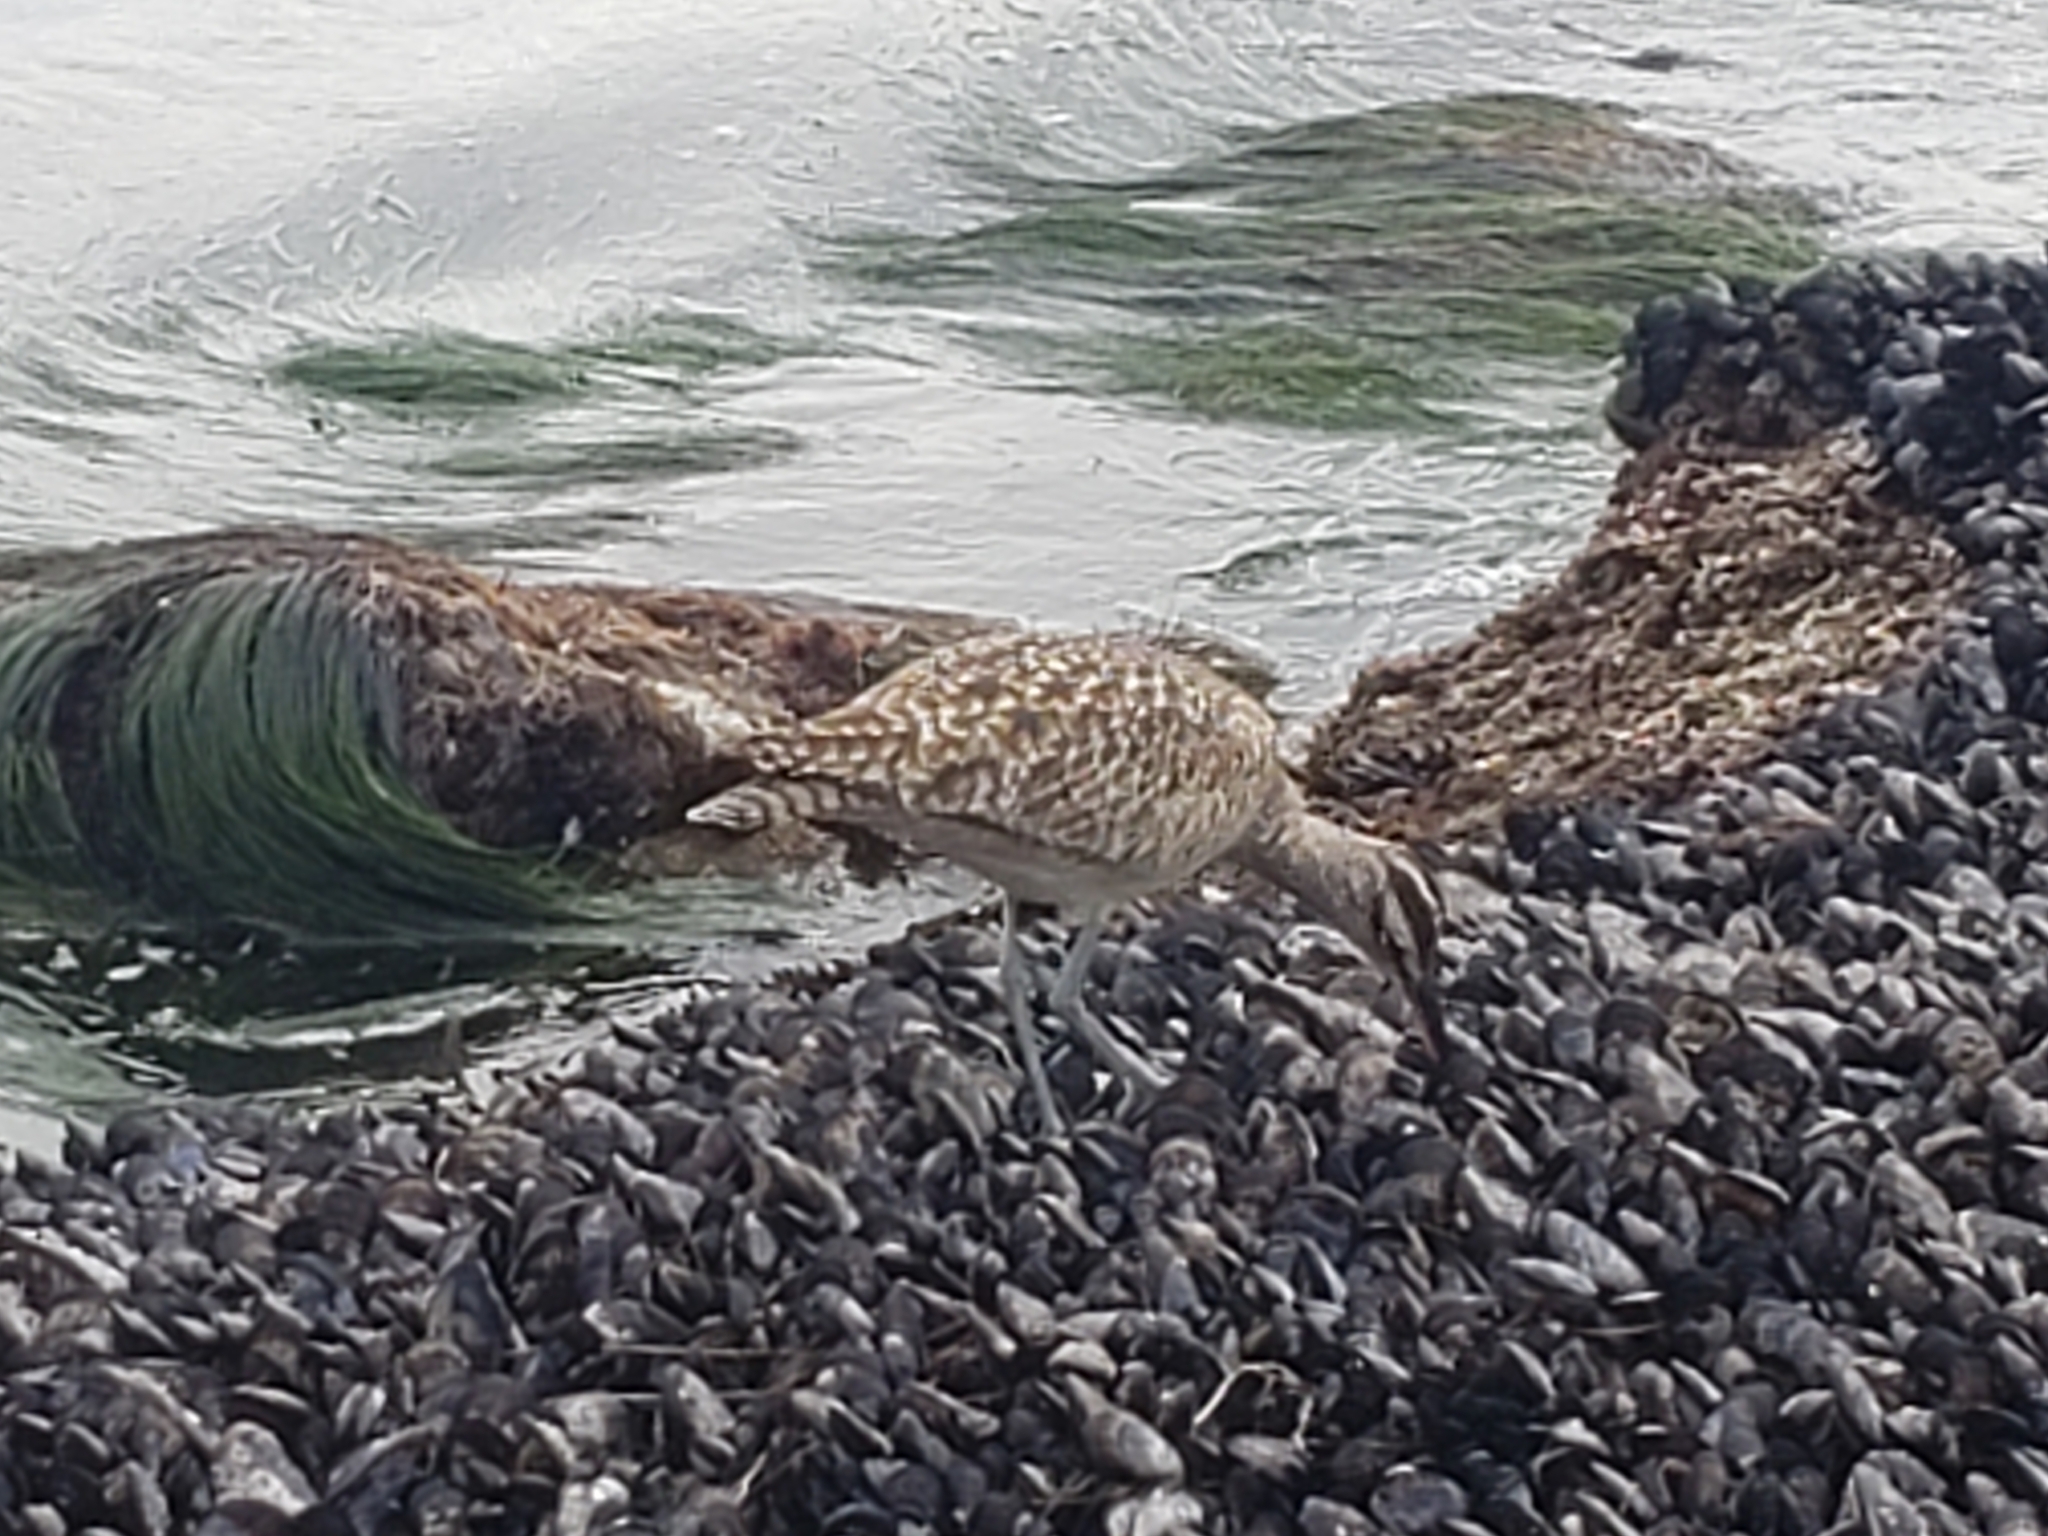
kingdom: Animalia
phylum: Chordata
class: Aves
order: Charadriiformes
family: Scolopacidae
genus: Numenius
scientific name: Numenius phaeopus
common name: Whimbrel
